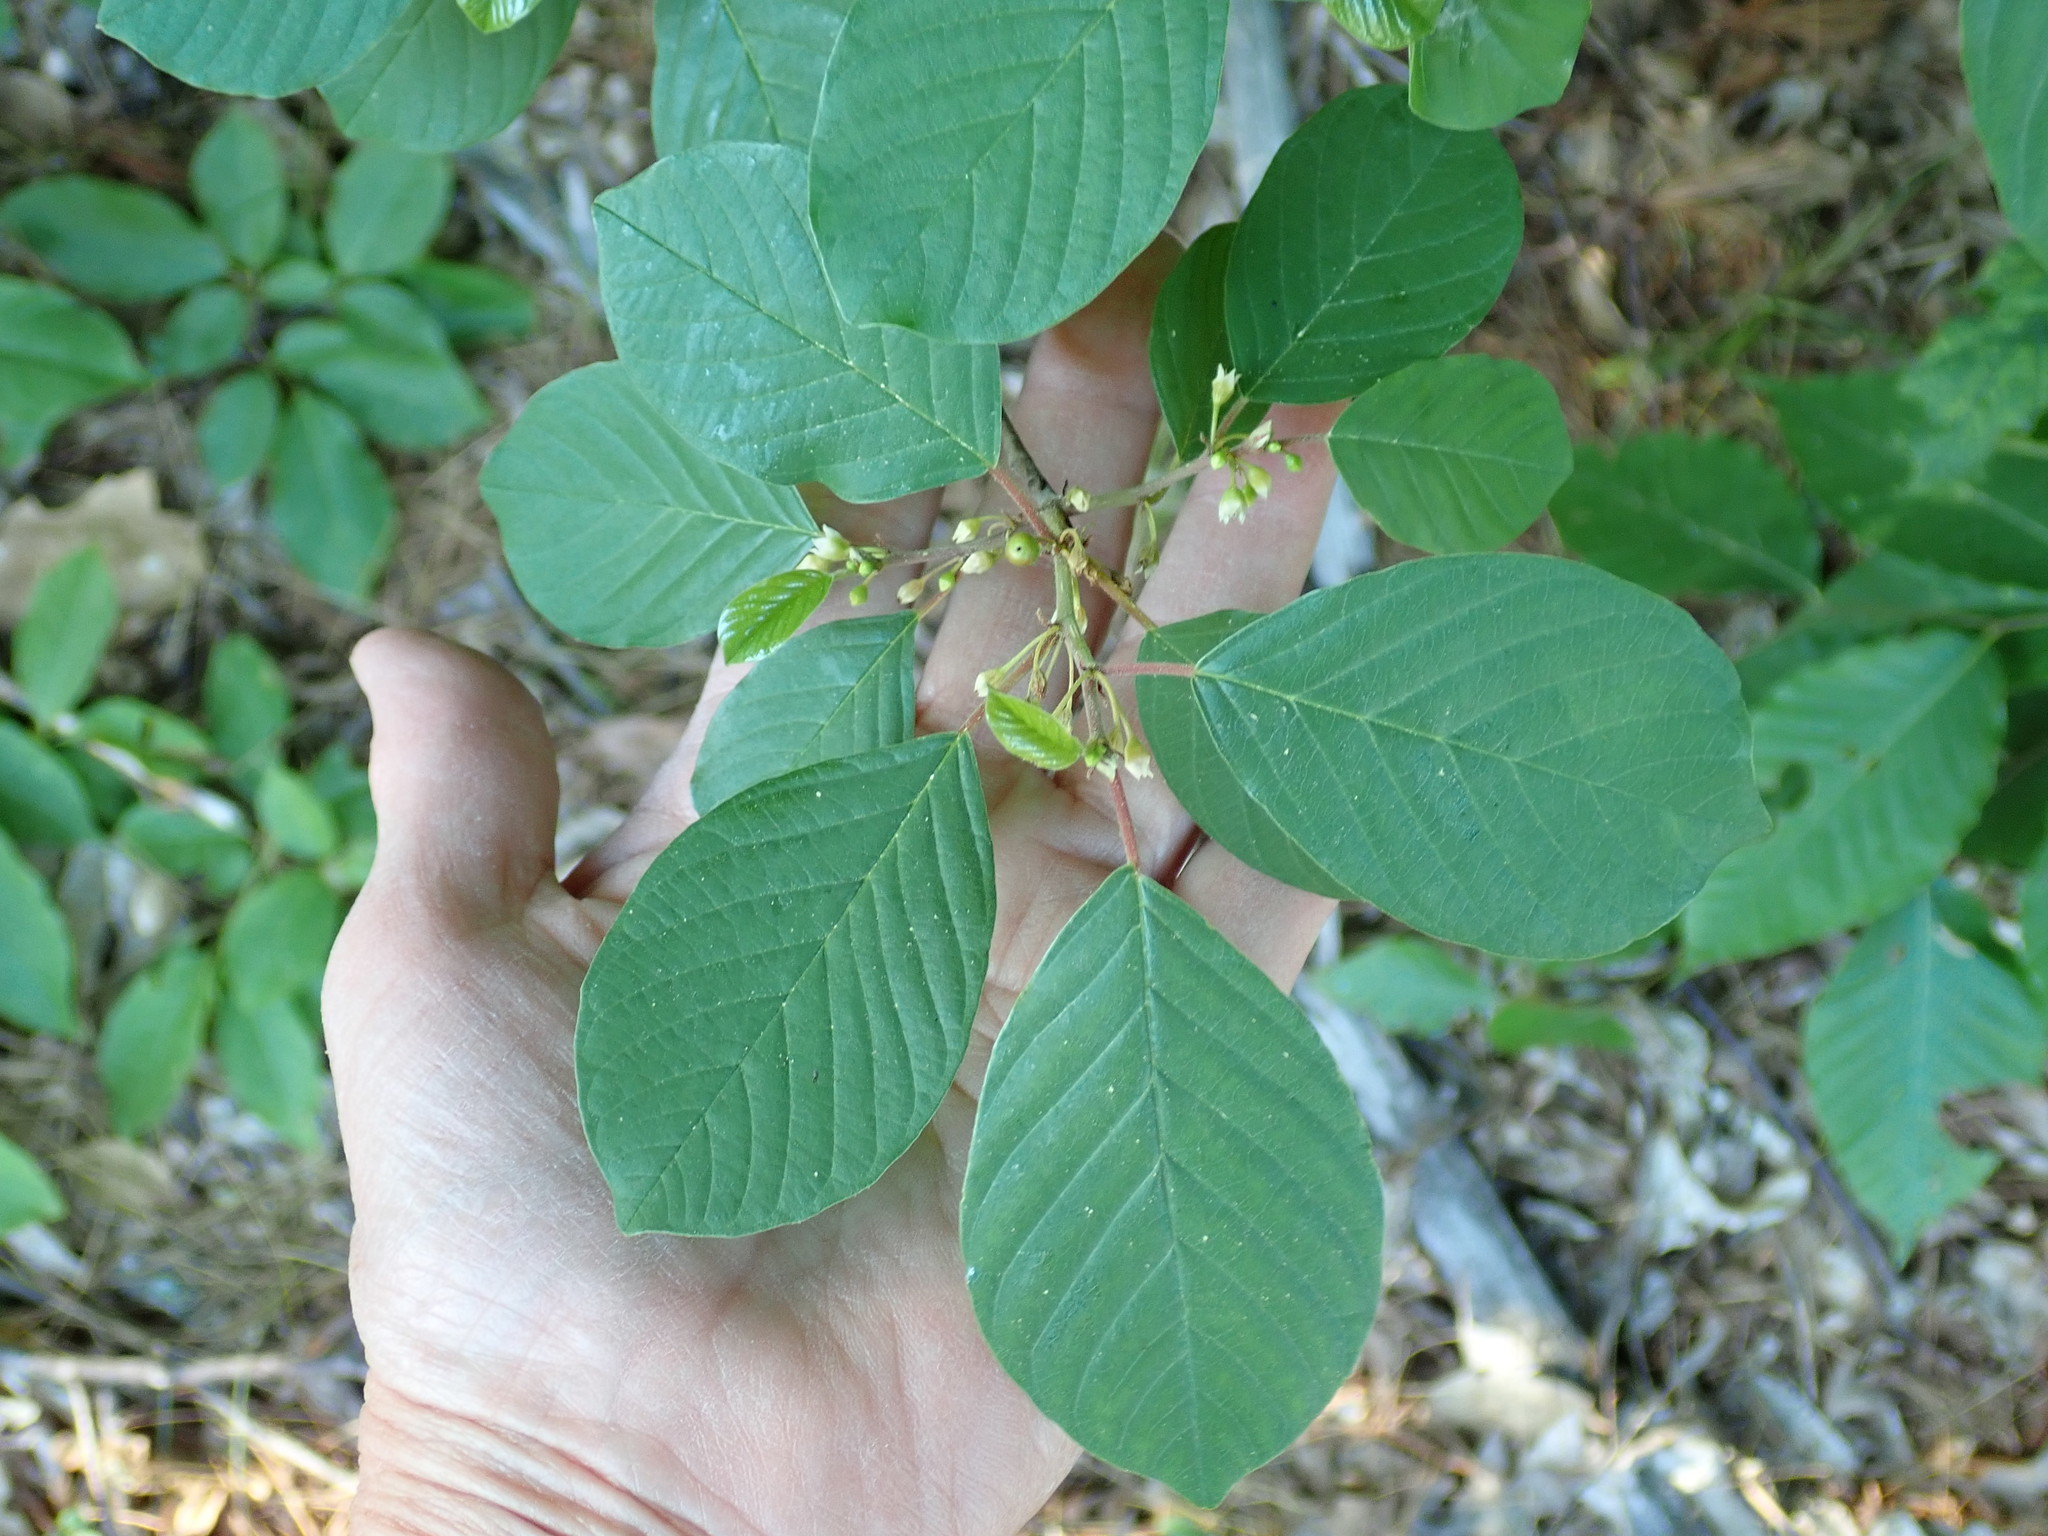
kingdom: Plantae
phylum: Tracheophyta
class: Magnoliopsida
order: Rosales
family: Rhamnaceae
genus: Frangula
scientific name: Frangula alnus
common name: Alder buckthorn
